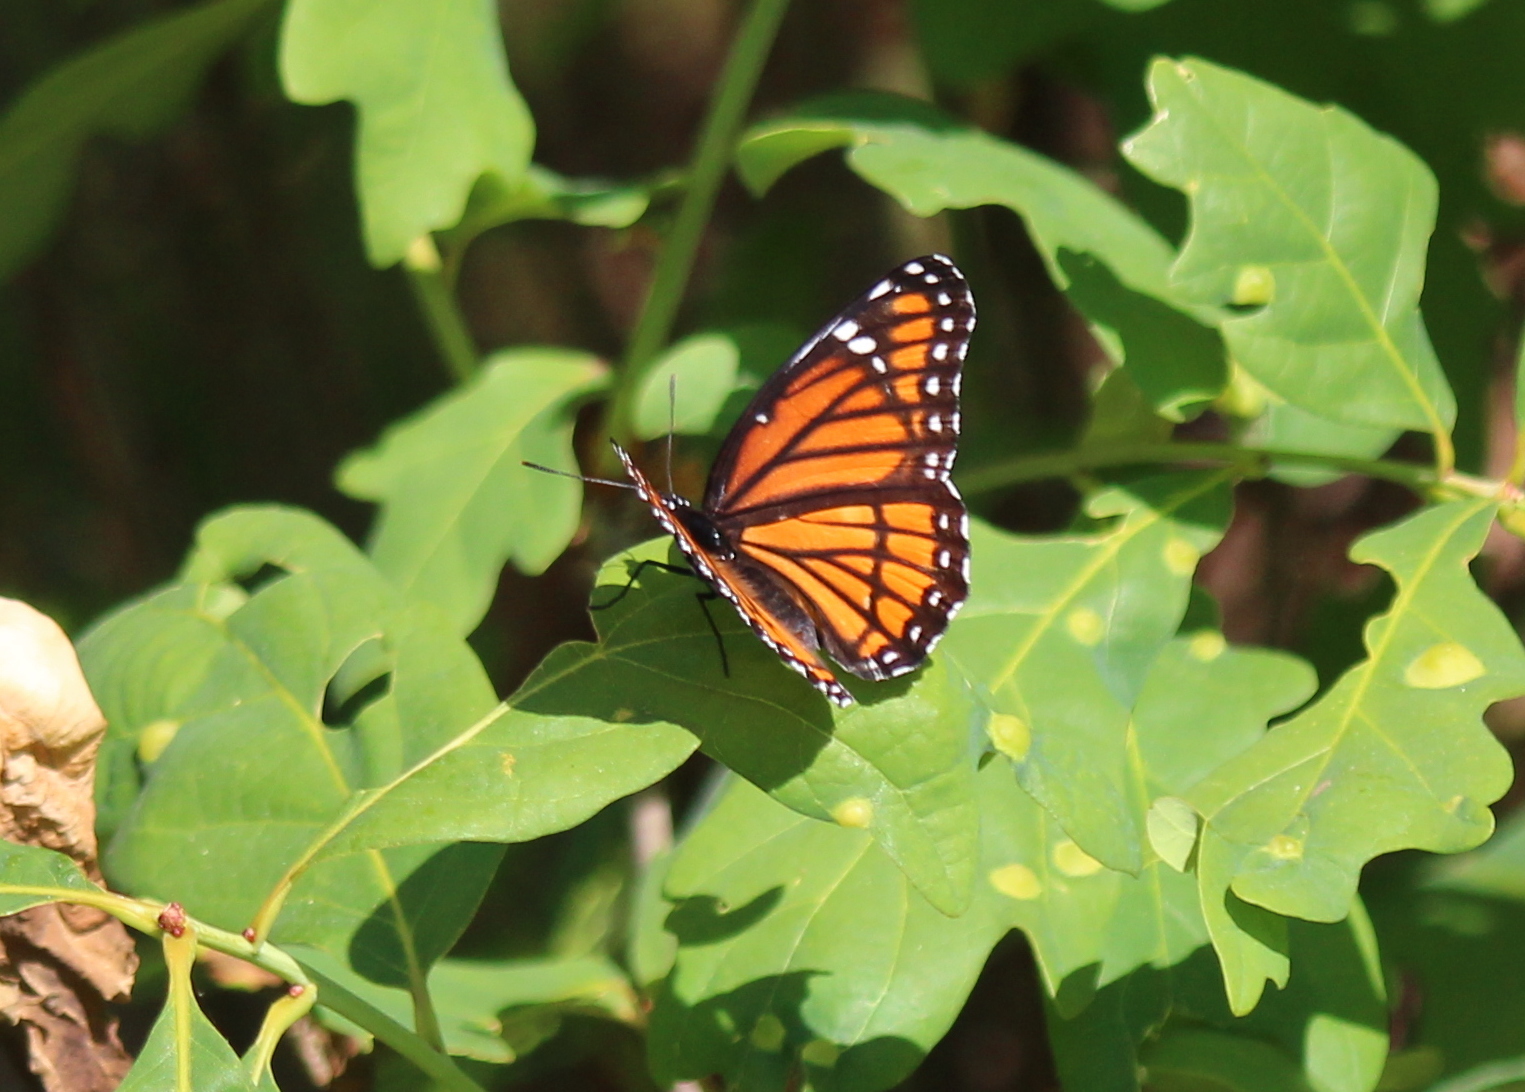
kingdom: Animalia
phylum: Arthropoda
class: Insecta
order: Lepidoptera
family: Nymphalidae
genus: Limenitis
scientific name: Limenitis archippus
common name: Viceroy
